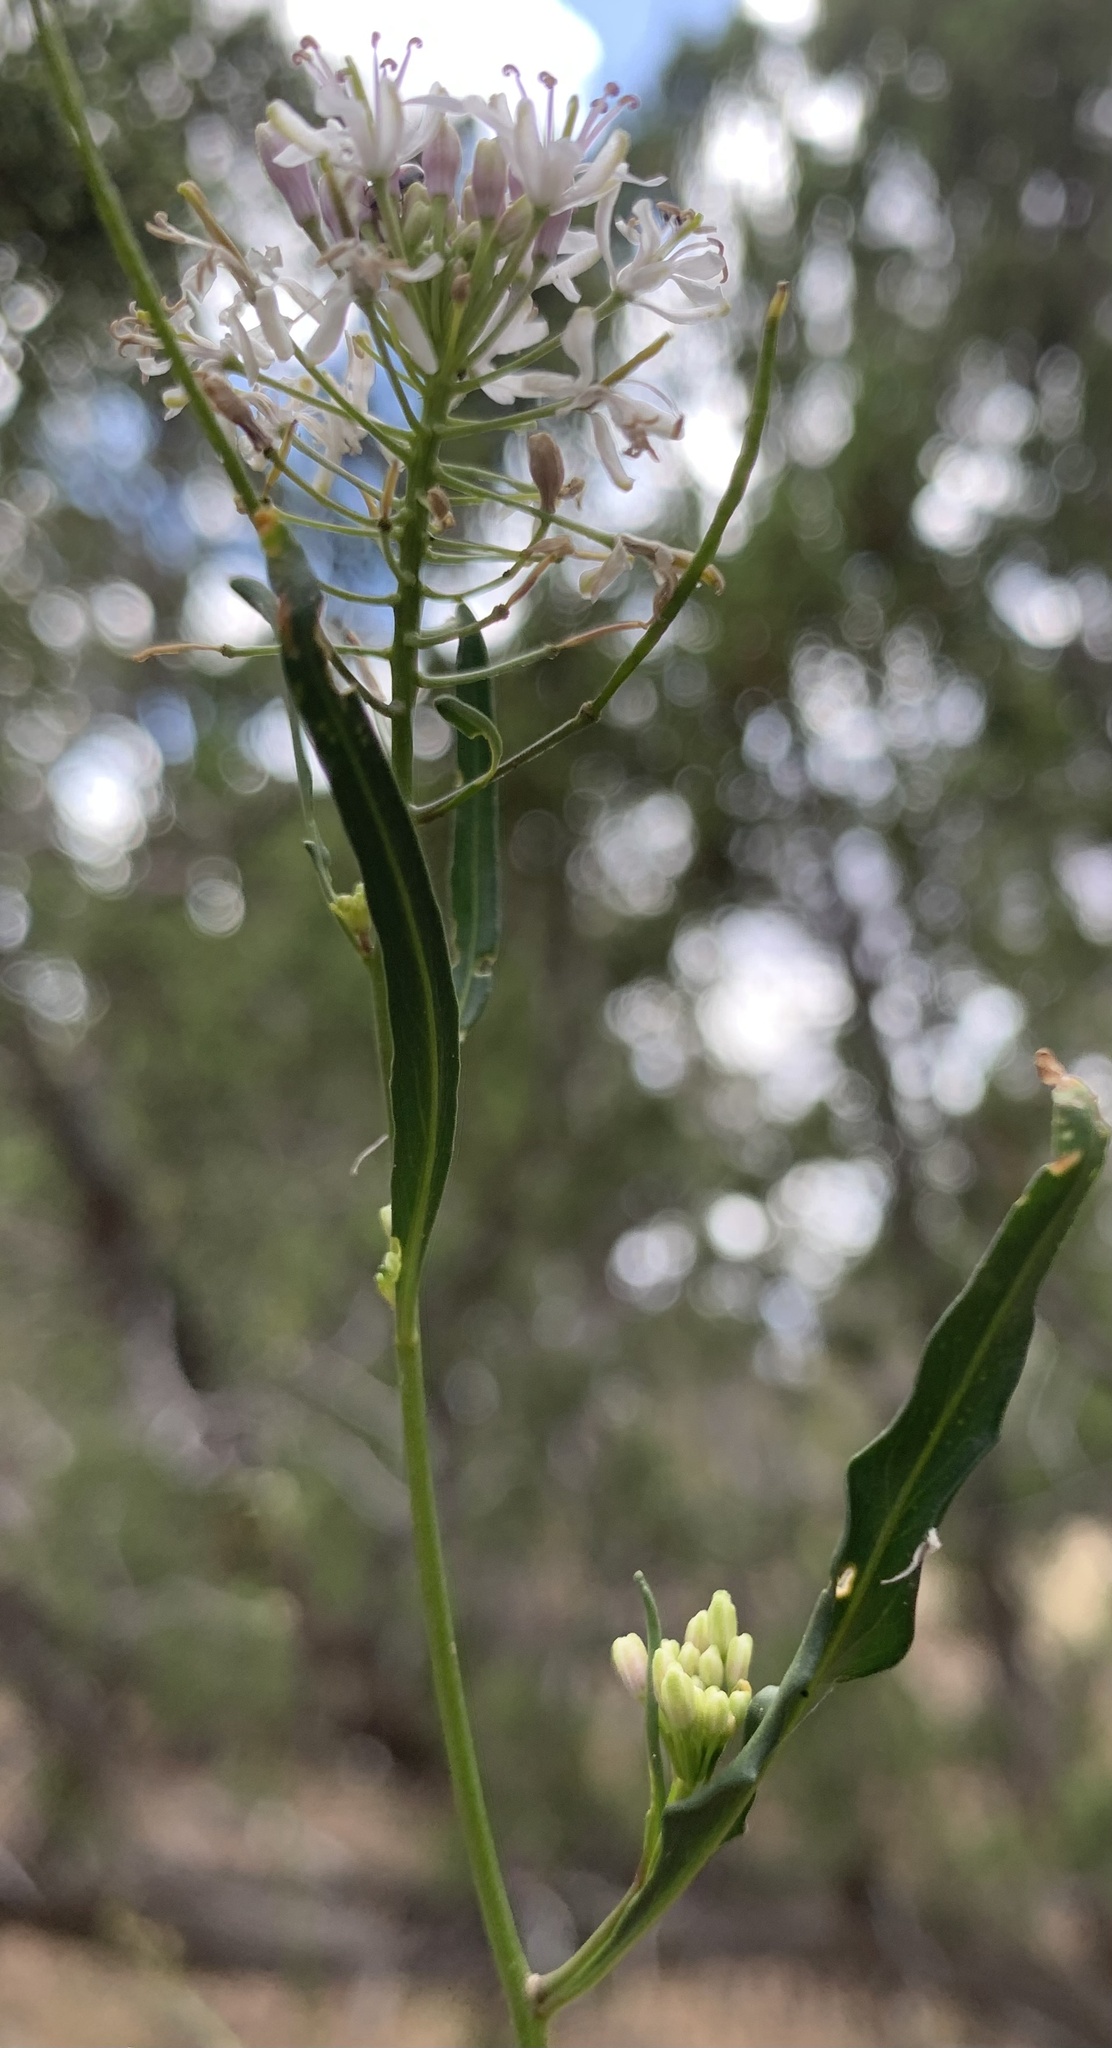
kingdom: Plantae
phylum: Tracheophyta
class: Magnoliopsida
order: Brassicales
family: Brassicaceae
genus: Thelypodium
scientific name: Thelypodium wrightii
